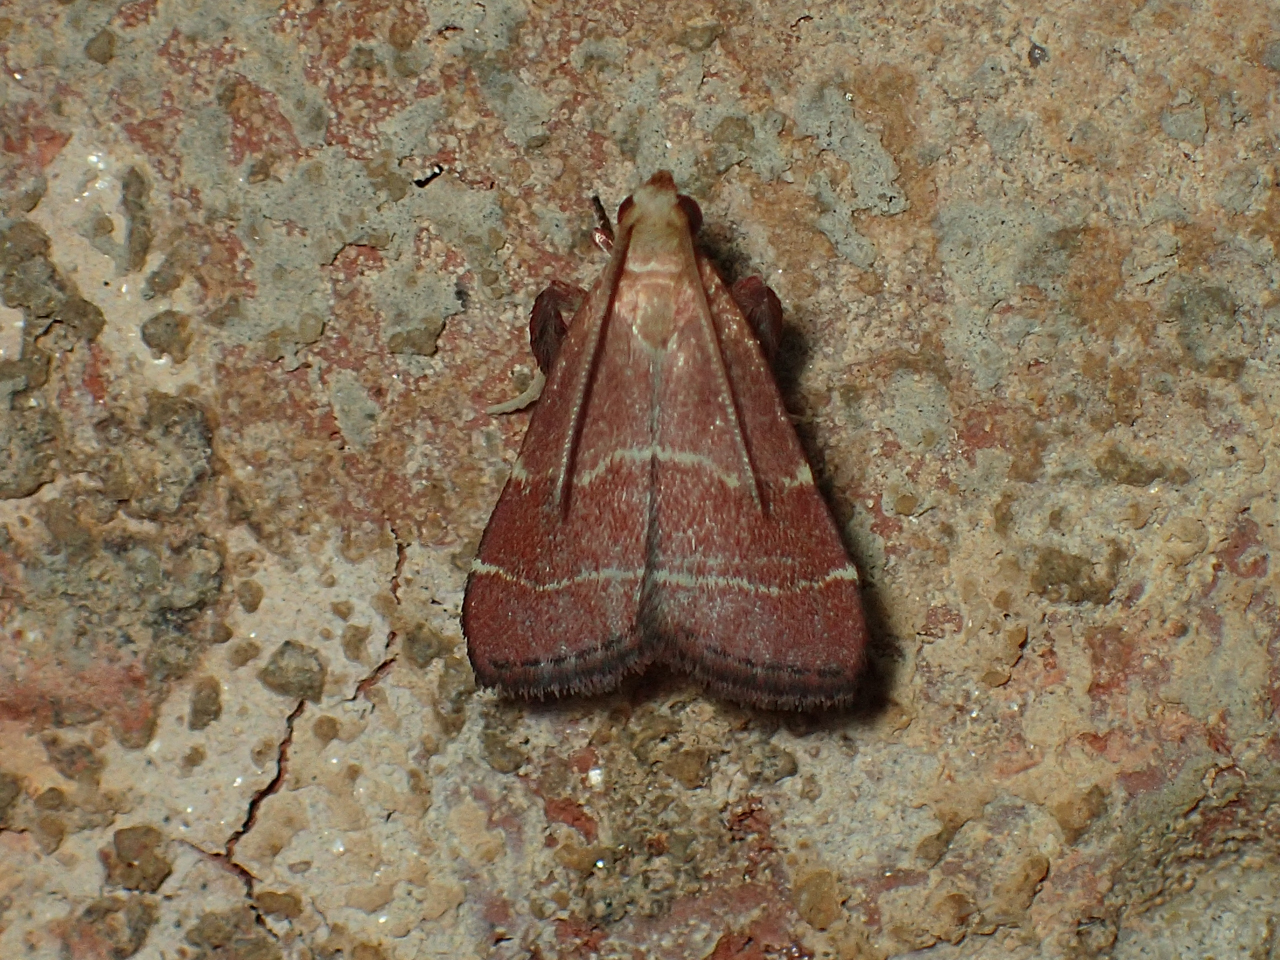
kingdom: Animalia
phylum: Arthropoda
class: Insecta
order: Lepidoptera
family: Pyralidae
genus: Arta
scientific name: Arta statalis
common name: Posturing arta moth
